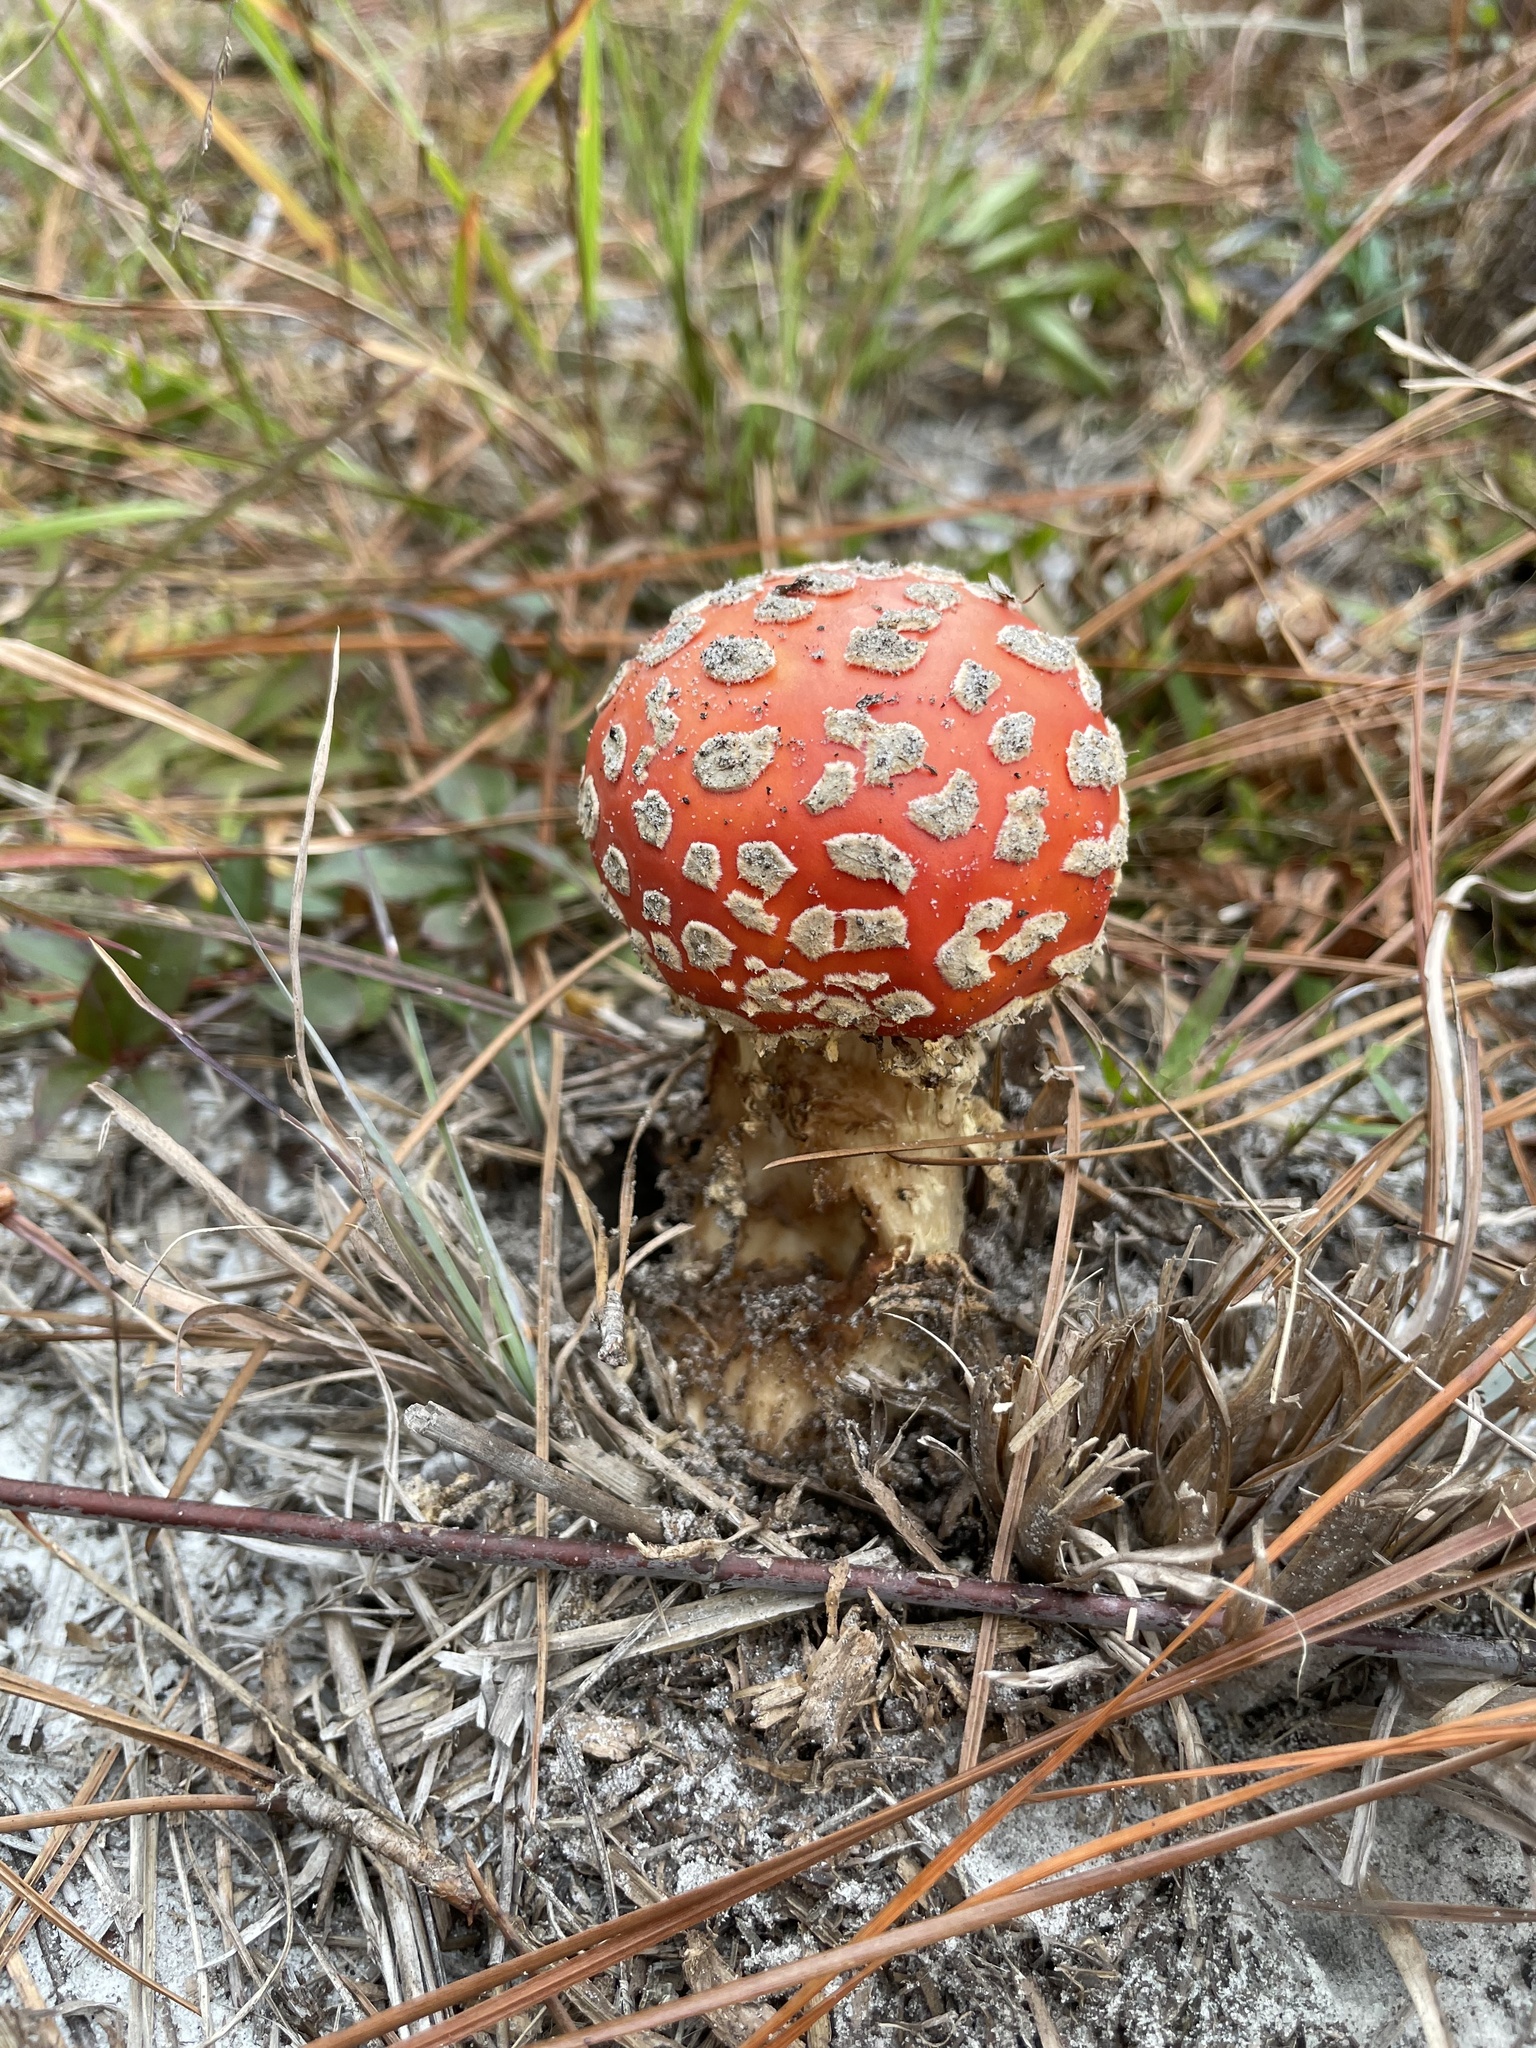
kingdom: Fungi
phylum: Basidiomycota
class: Agaricomycetes
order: Agaricales
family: Amanitaceae
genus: Amanita
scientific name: Amanita persicina
